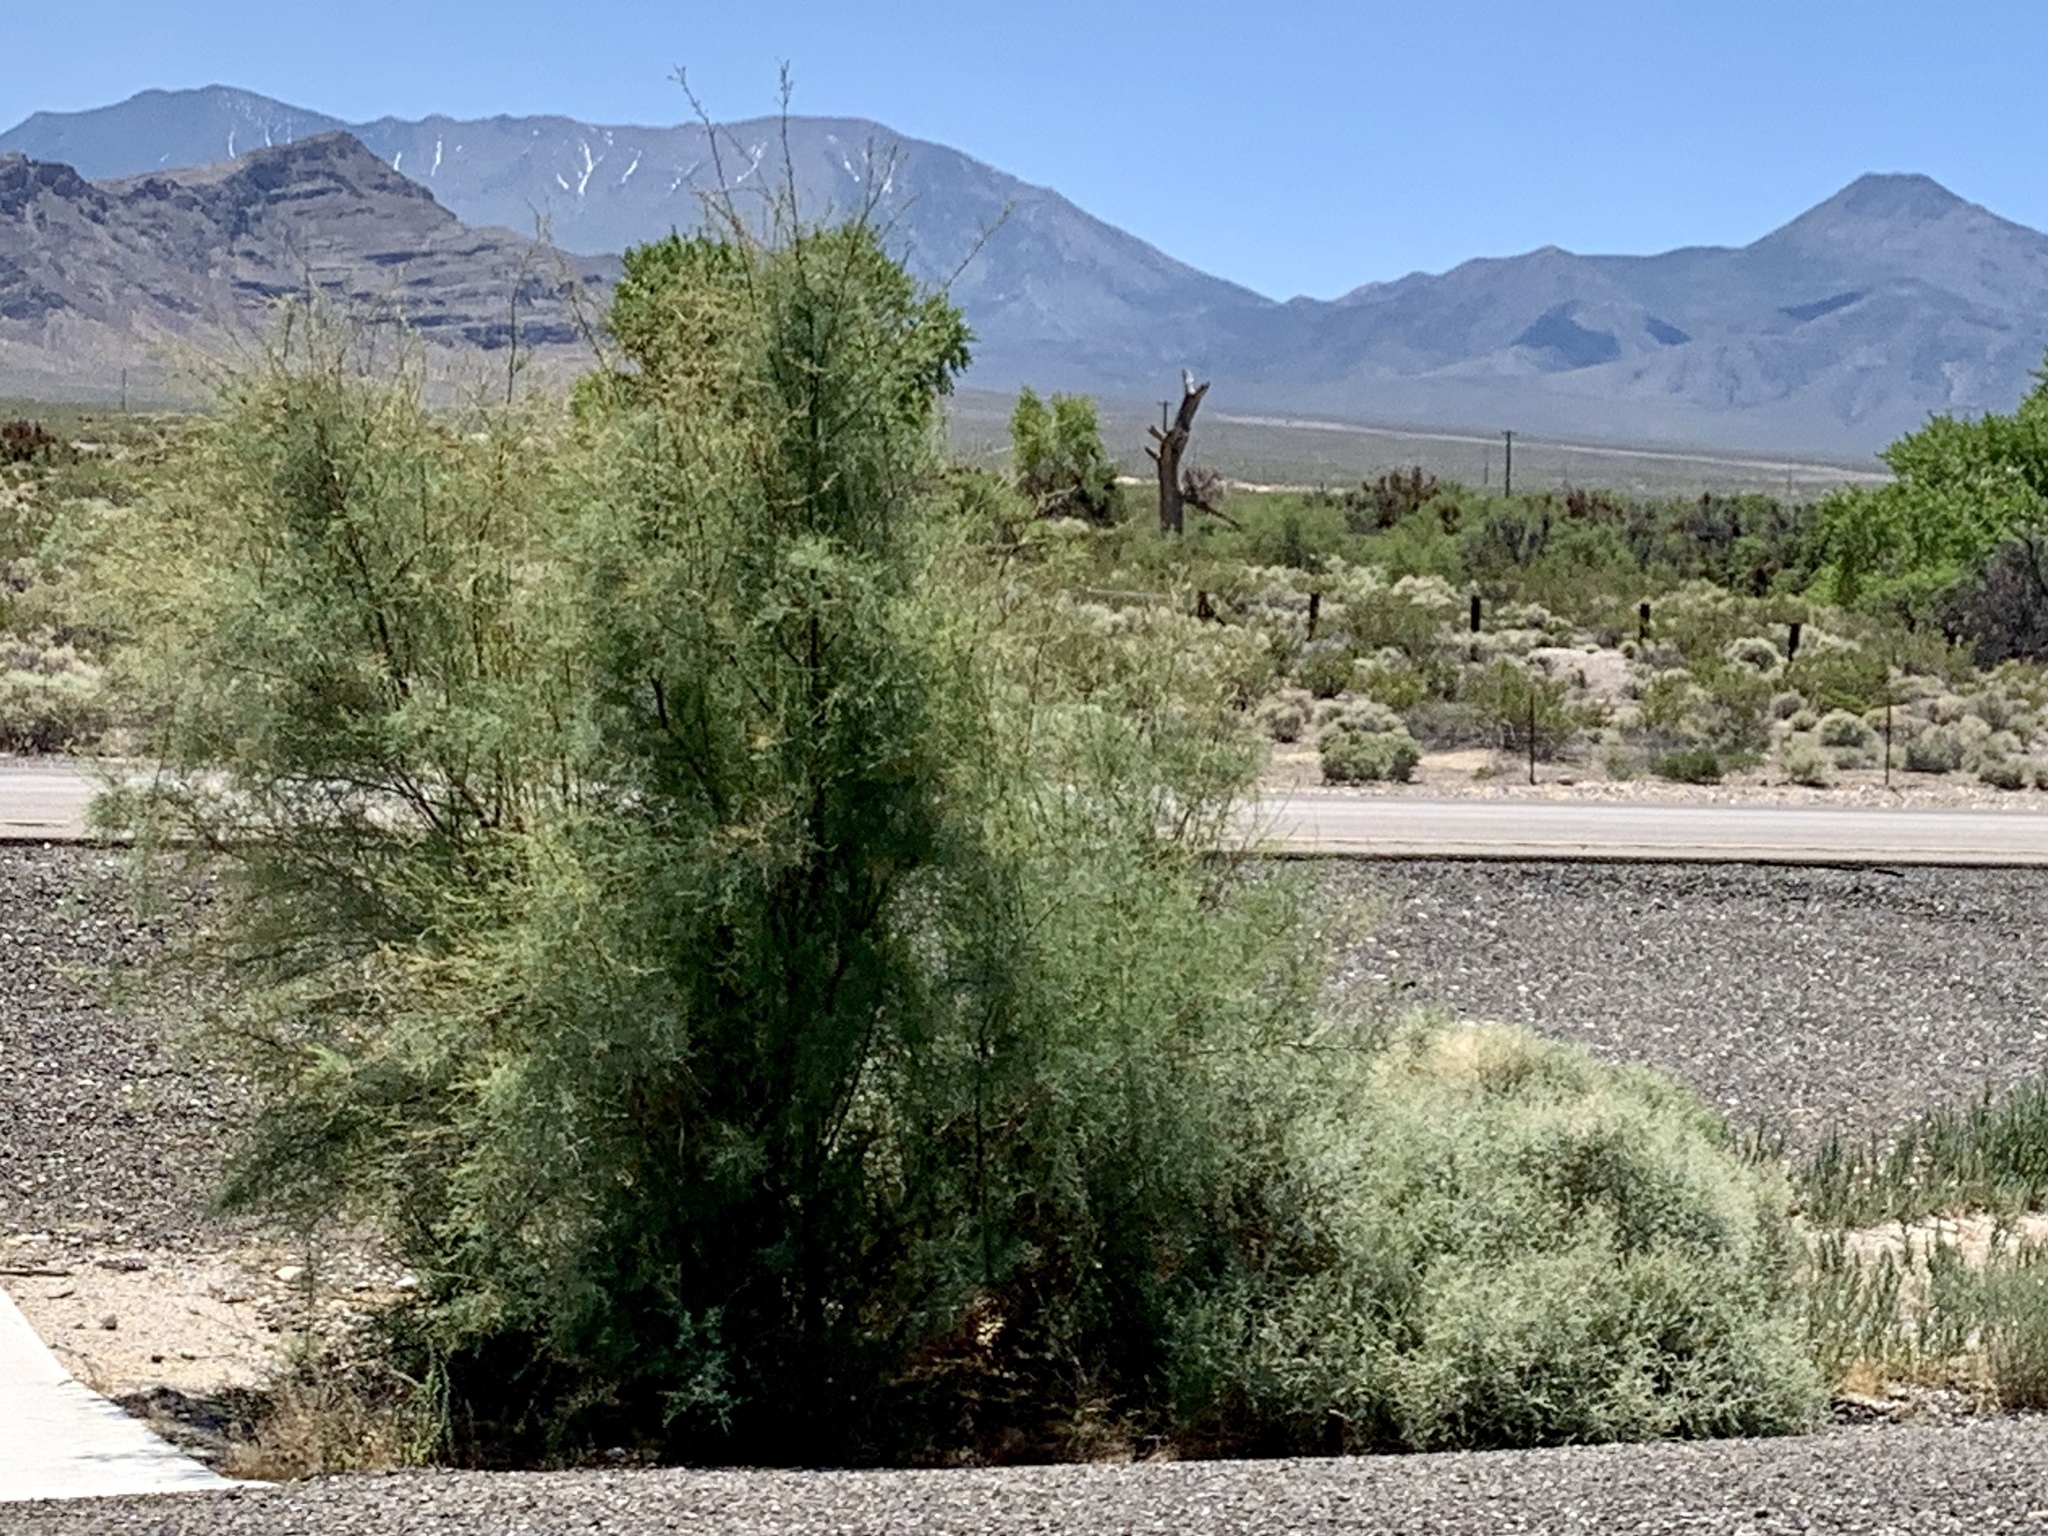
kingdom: Plantae
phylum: Tracheophyta
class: Magnoliopsida
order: Caryophyllales
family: Tamaricaceae
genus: Tamarix
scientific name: Tamarix
